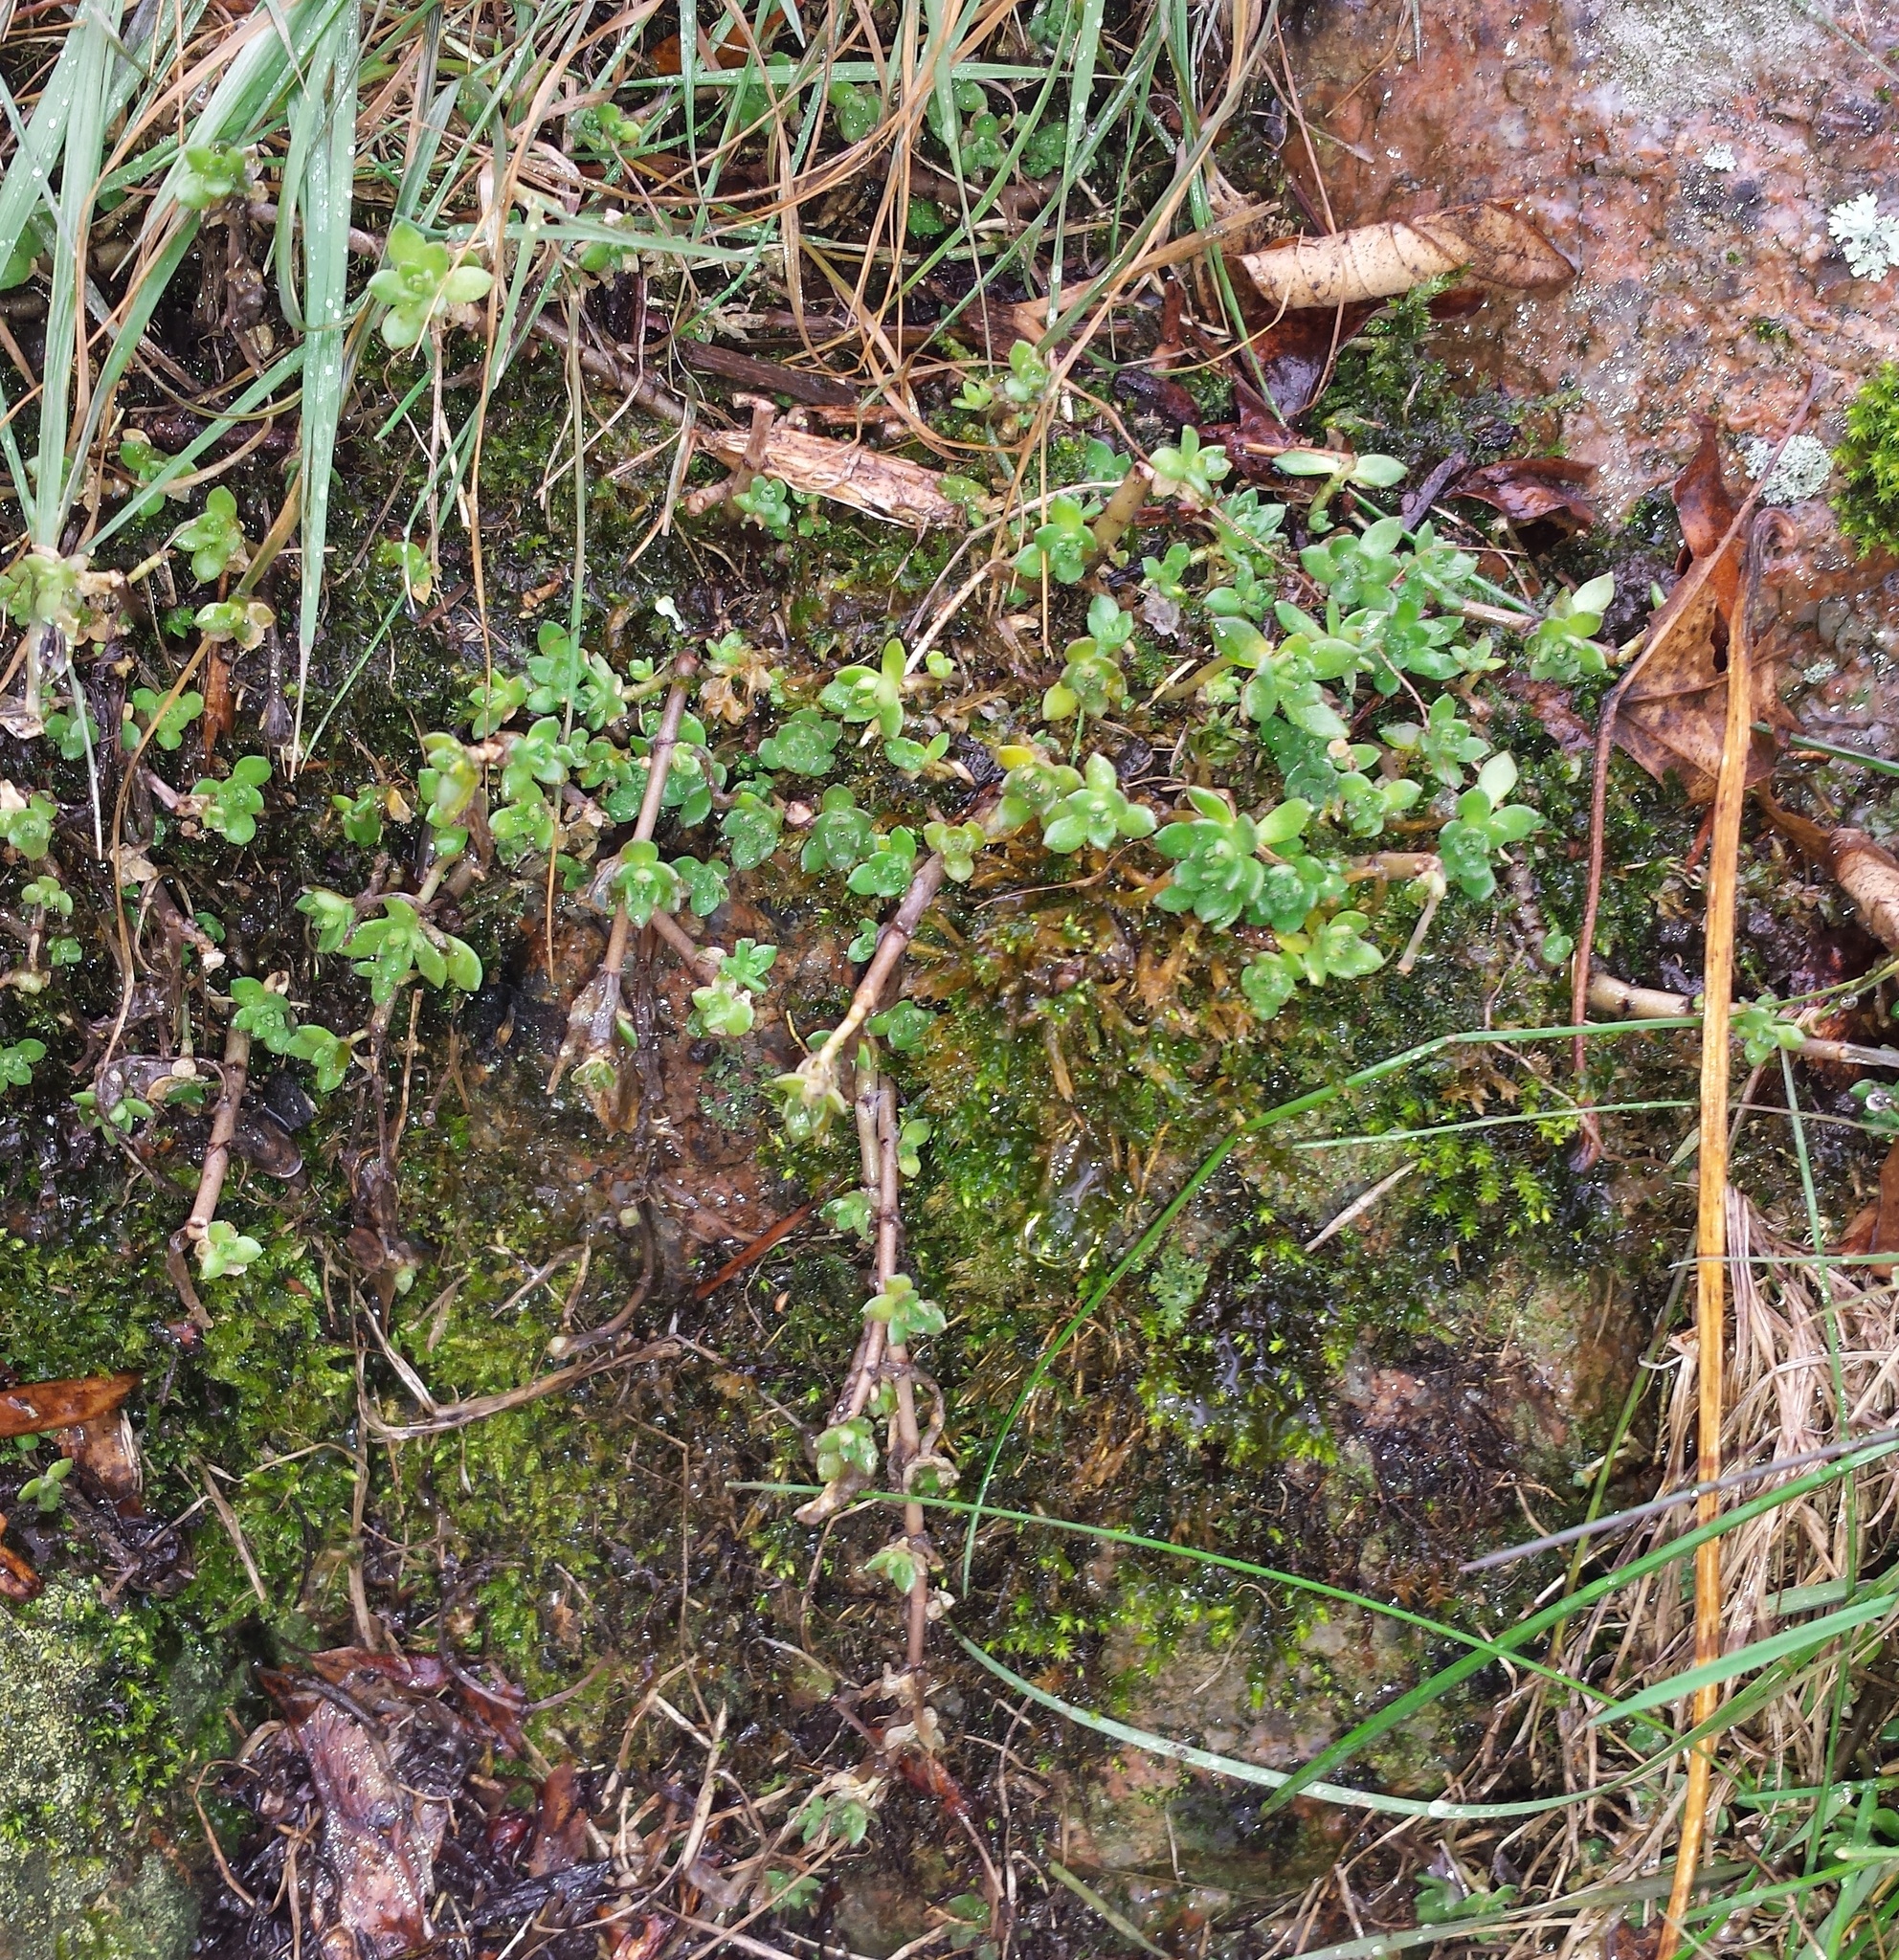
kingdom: Plantae
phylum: Tracheophyta
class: Magnoliopsida
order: Saxifragales
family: Crassulaceae
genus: Sedum
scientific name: Sedum sarmentosum
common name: Stringy stonecrop
